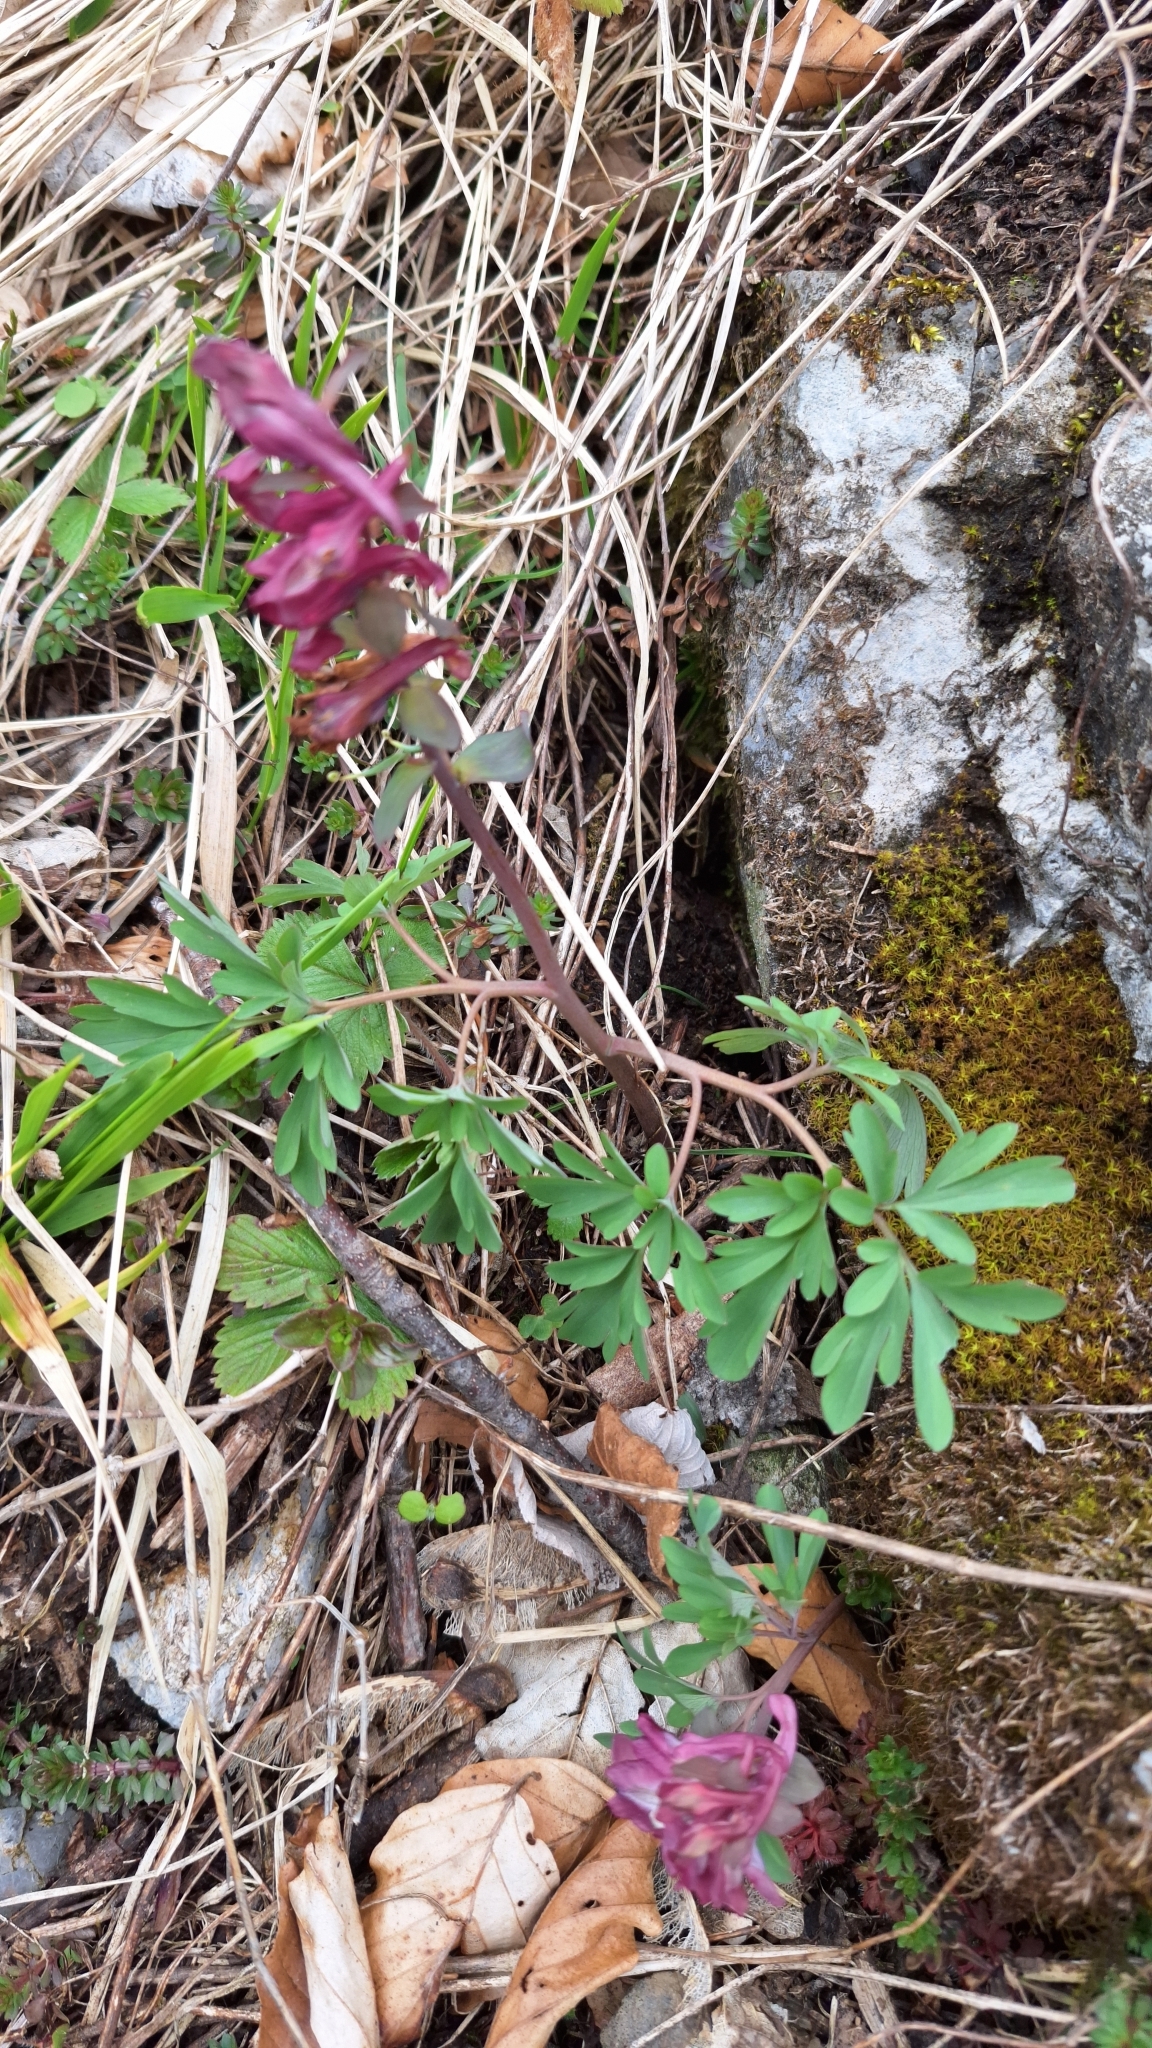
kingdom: Plantae
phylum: Tracheophyta
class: Magnoliopsida
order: Ranunculales
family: Papaveraceae
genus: Corydalis
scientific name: Corydalis cava
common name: Hollowroot
